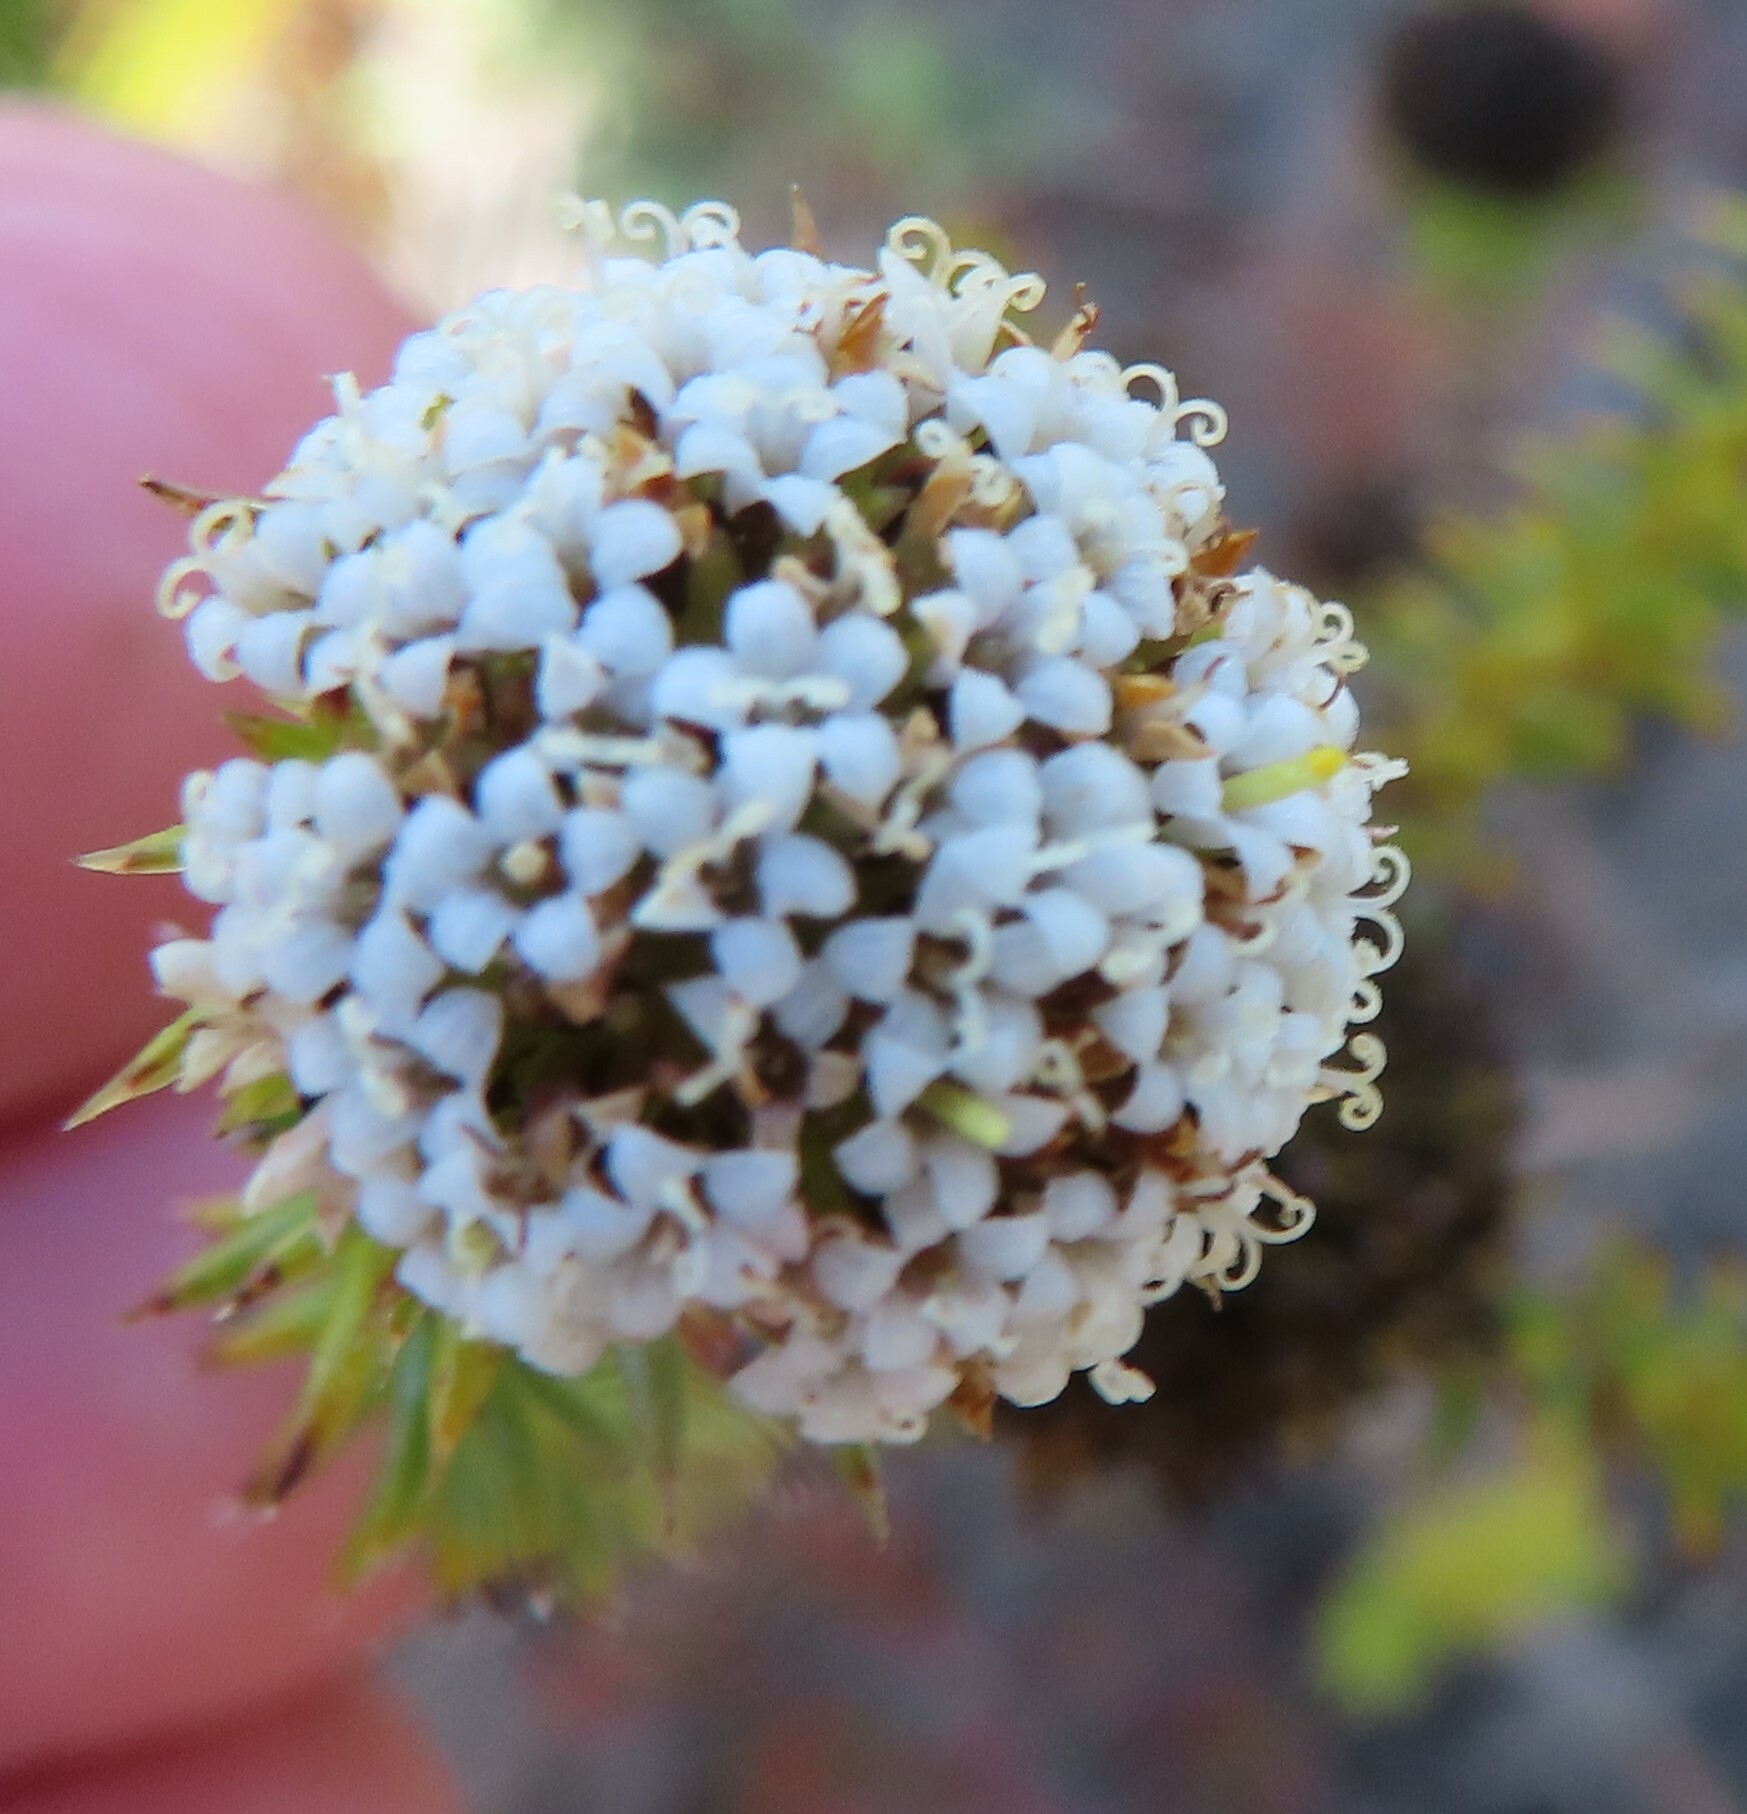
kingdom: Plantae
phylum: Tracheophyta
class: Magnoliopsida
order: Asterales
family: Asteraceae
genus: Stoebe
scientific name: Stoebe aethiopica
